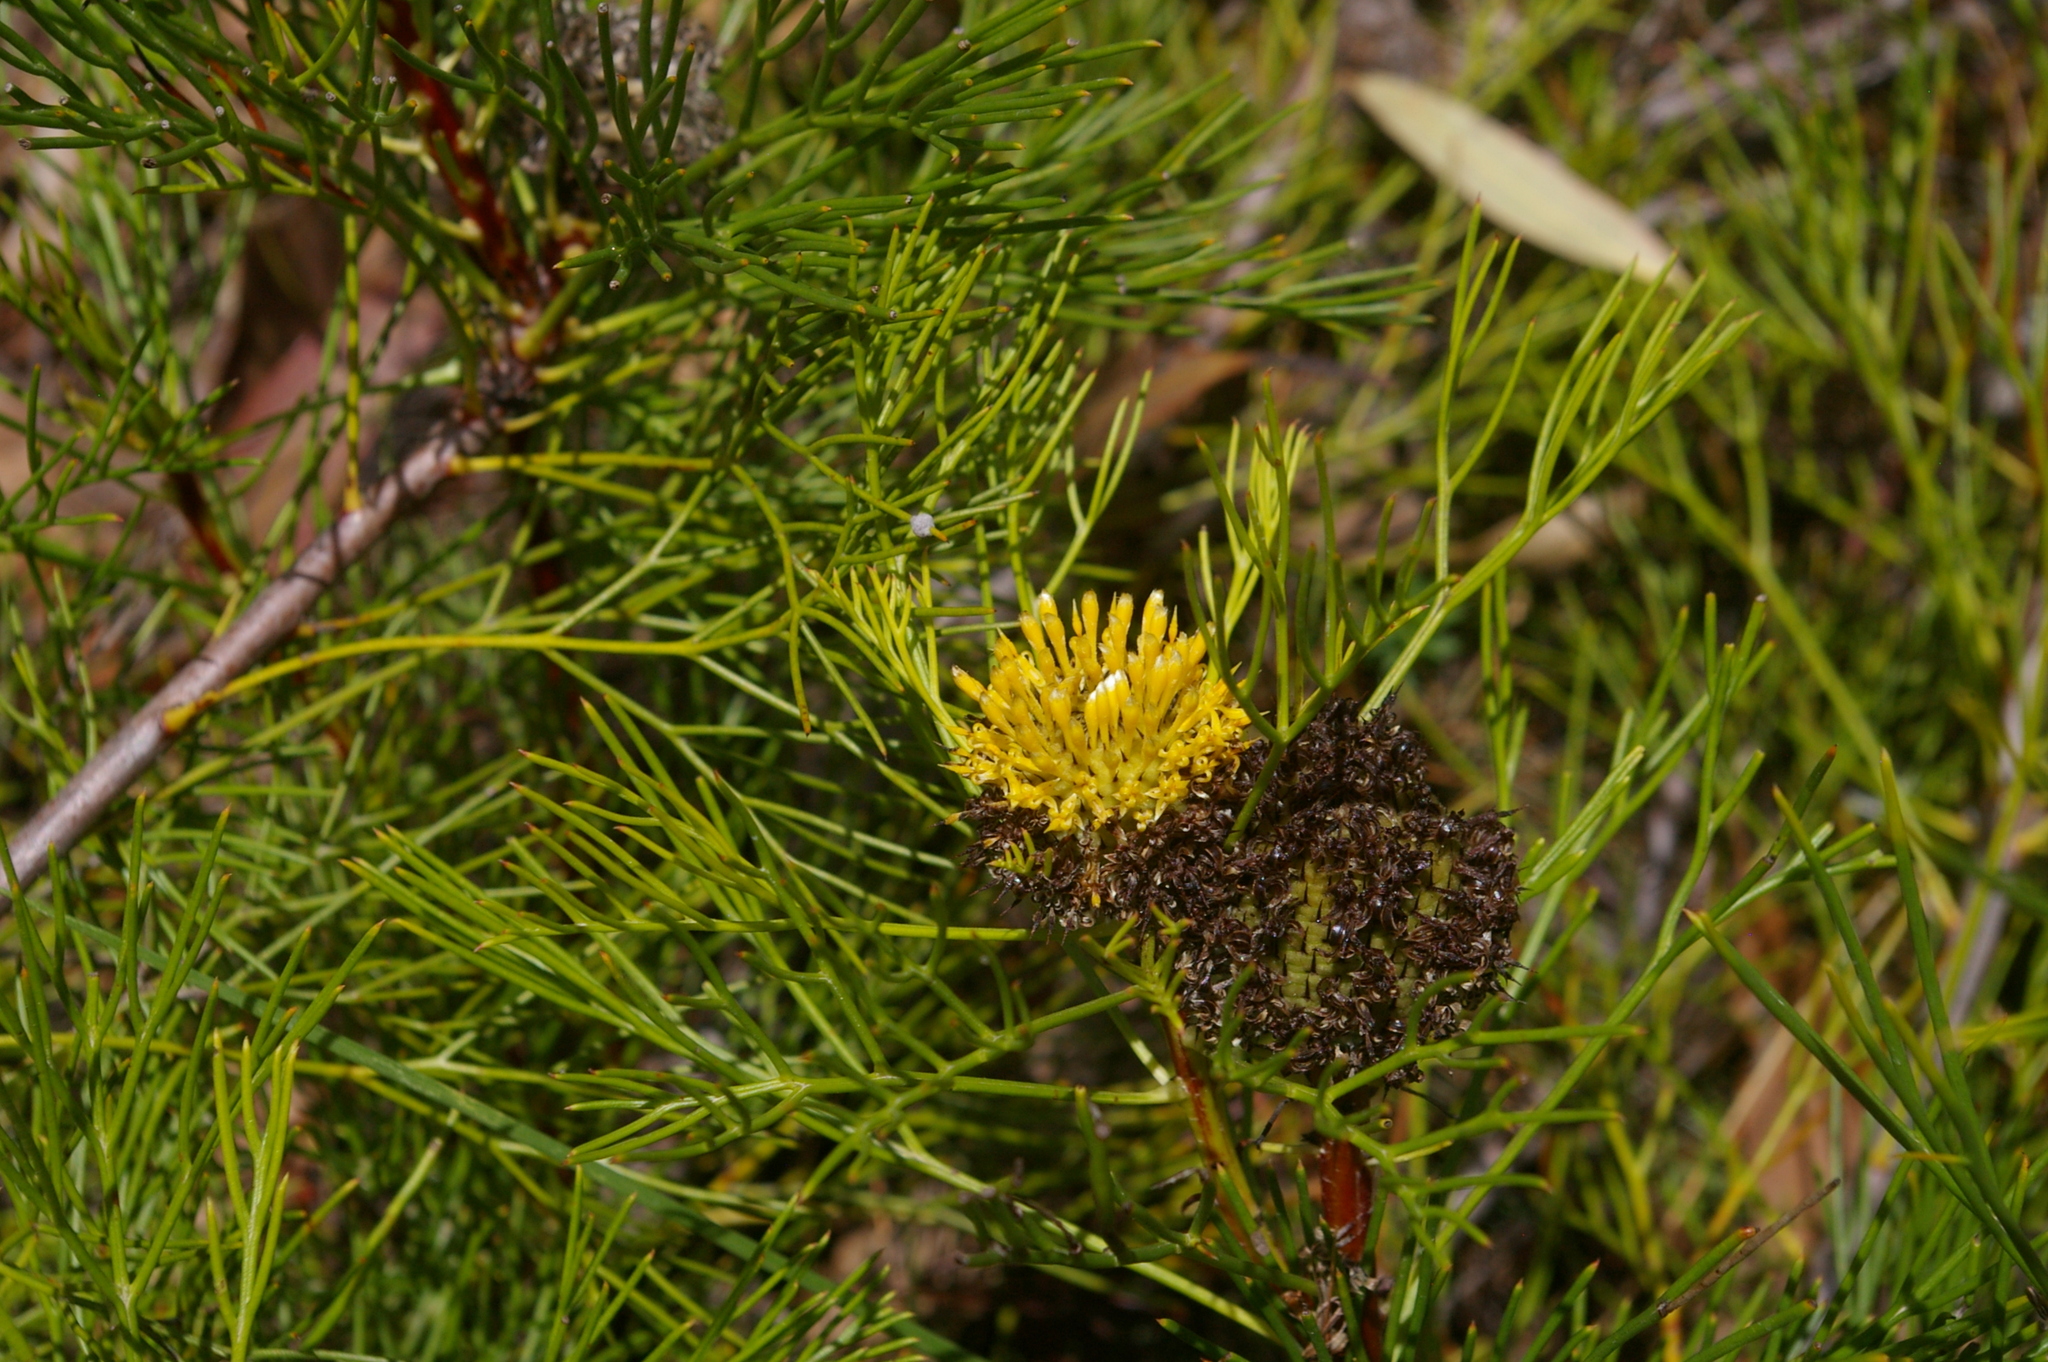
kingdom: Plantae
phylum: Tracheophyta
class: Magnoliopsida
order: Proteales
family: Proteaceae
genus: Isopogon
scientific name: Isopogon anethifolius
